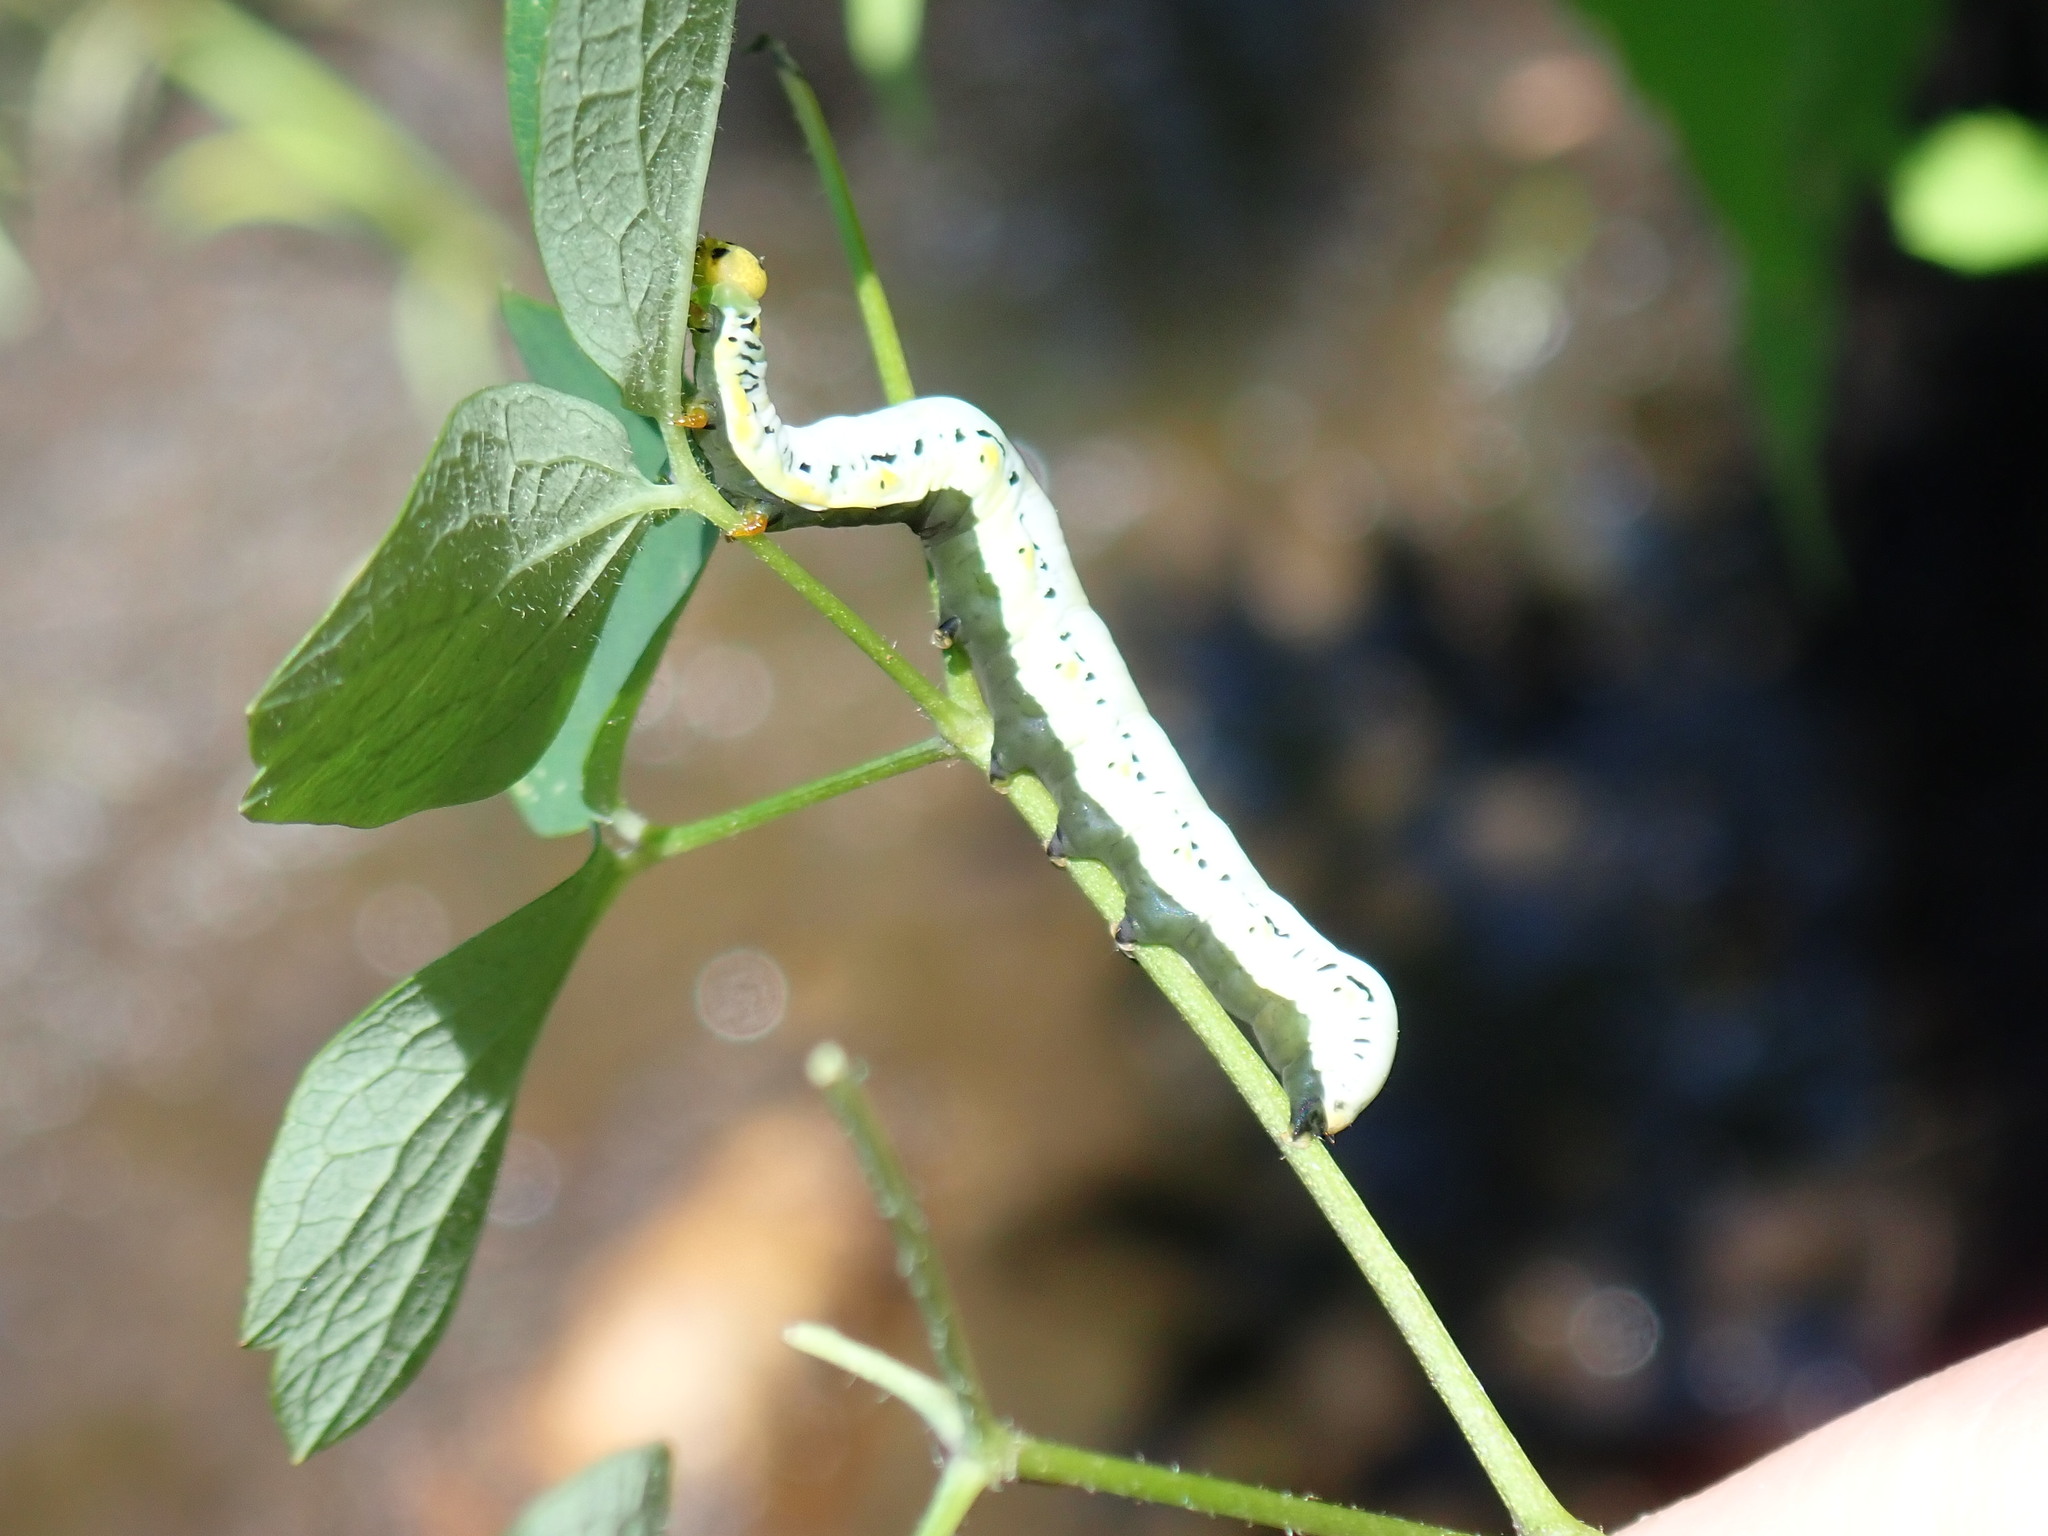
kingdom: Animalia
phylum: Arthropoda
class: Insecta
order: Lepidoptera
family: Erebidae
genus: Calyptra
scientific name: Calyptra canadensis
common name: Canadian owlet
